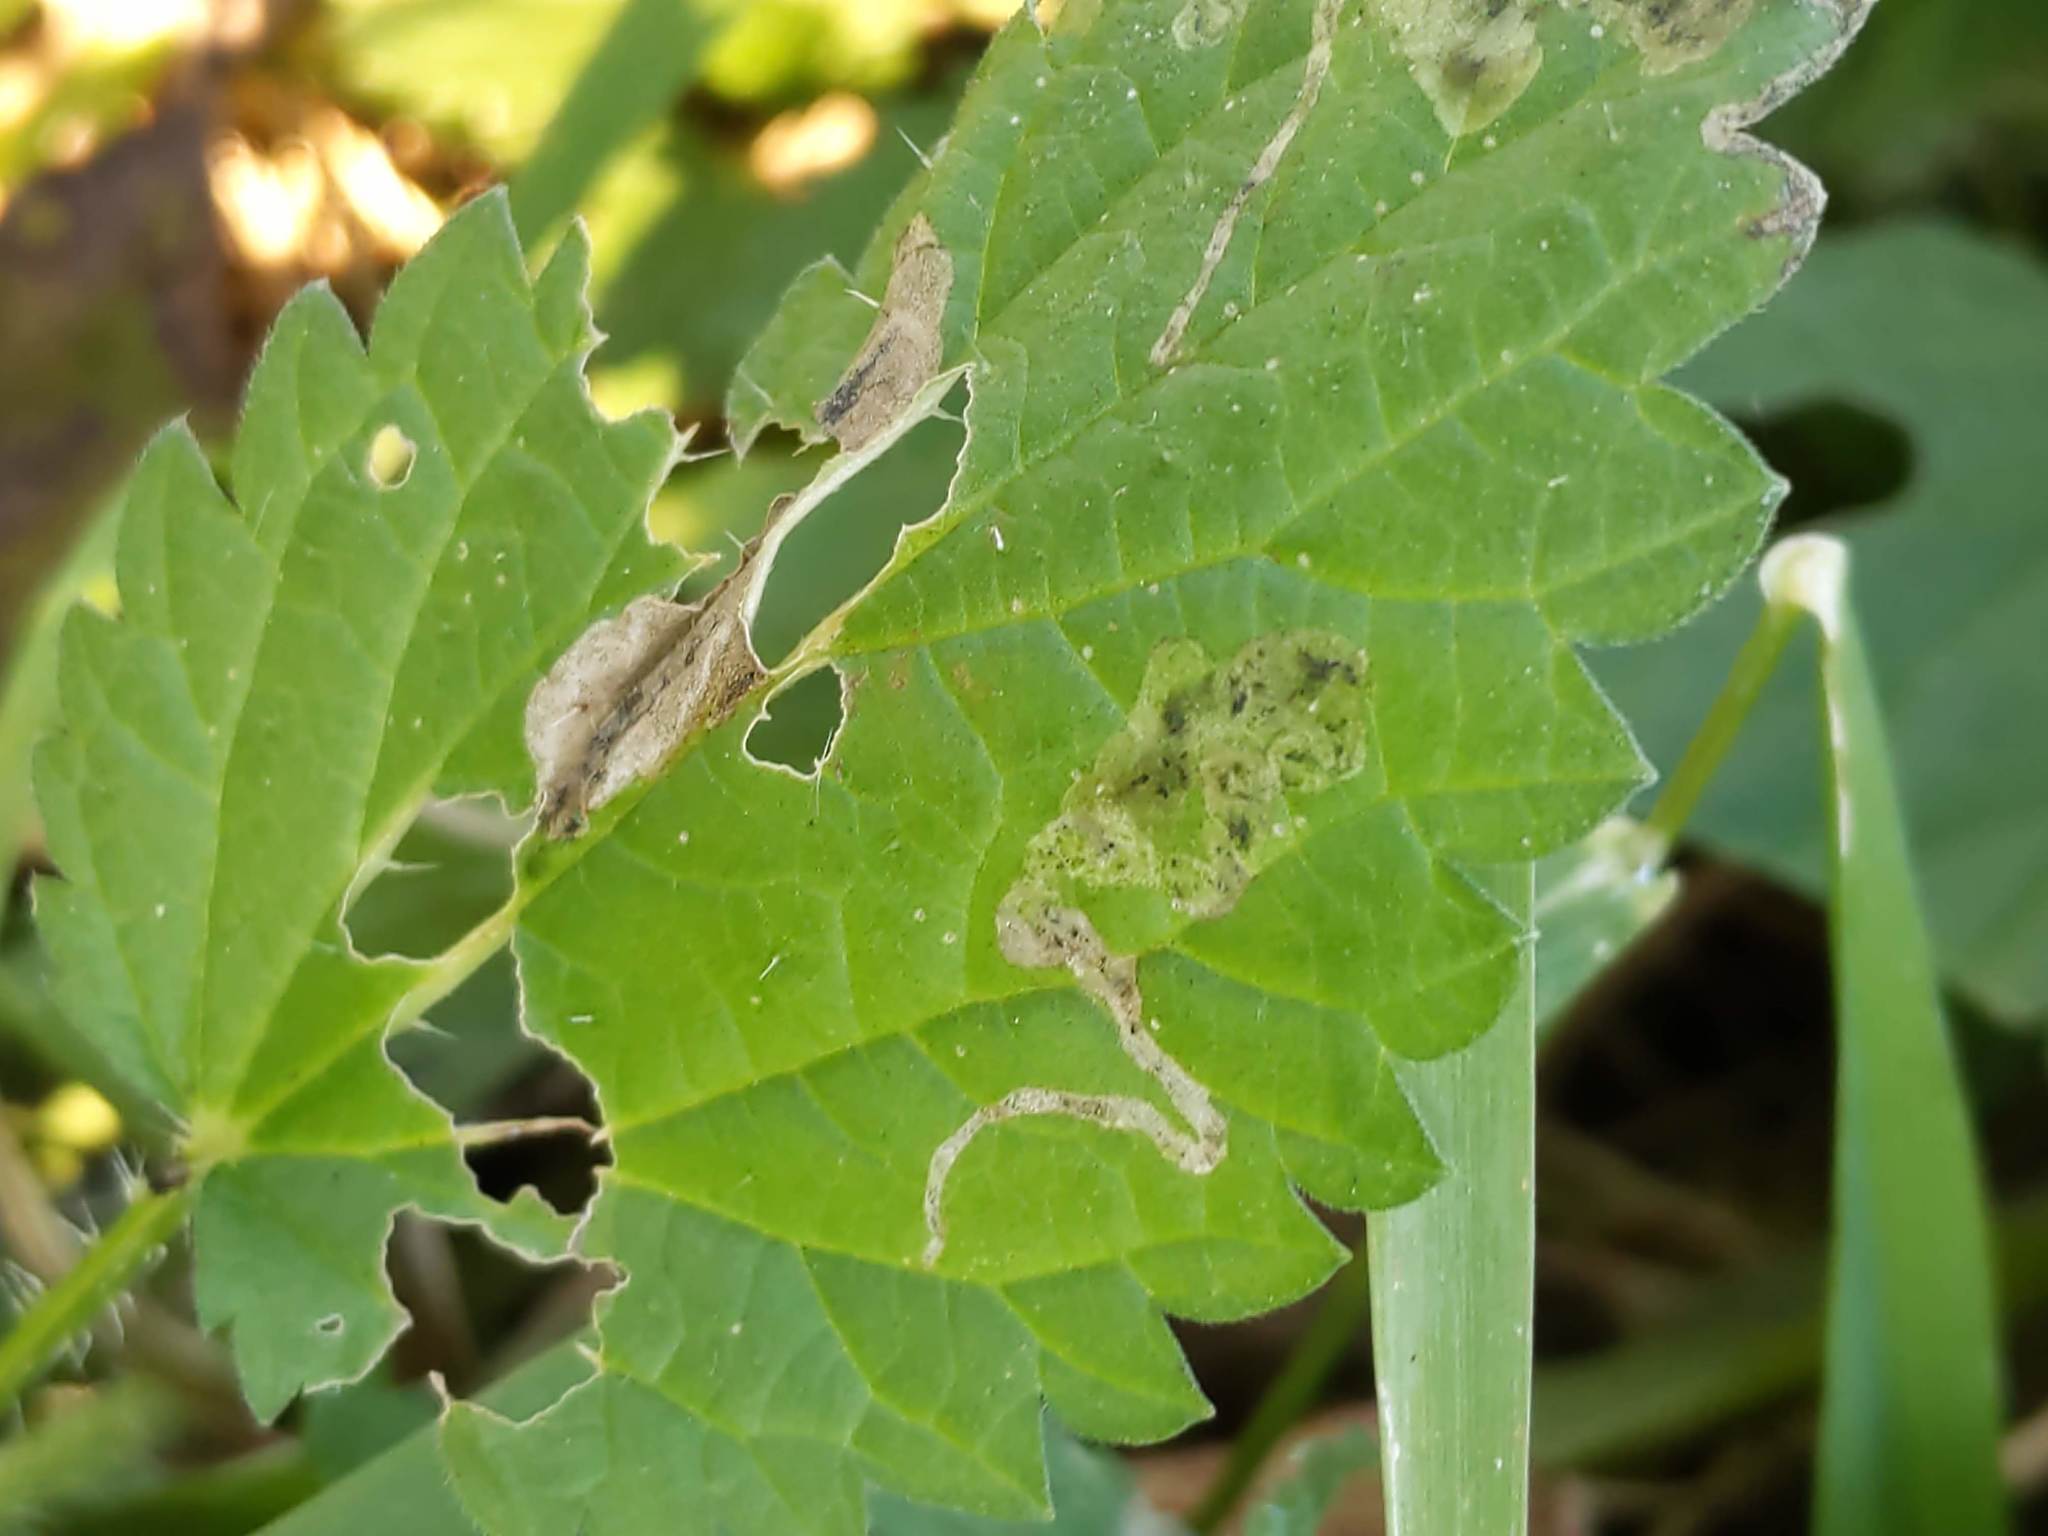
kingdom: Animalia
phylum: Arthropoda
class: Insecta
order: Diptera
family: Agromyzidae
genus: Agromyza
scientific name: Agromyza pseudoreptans
